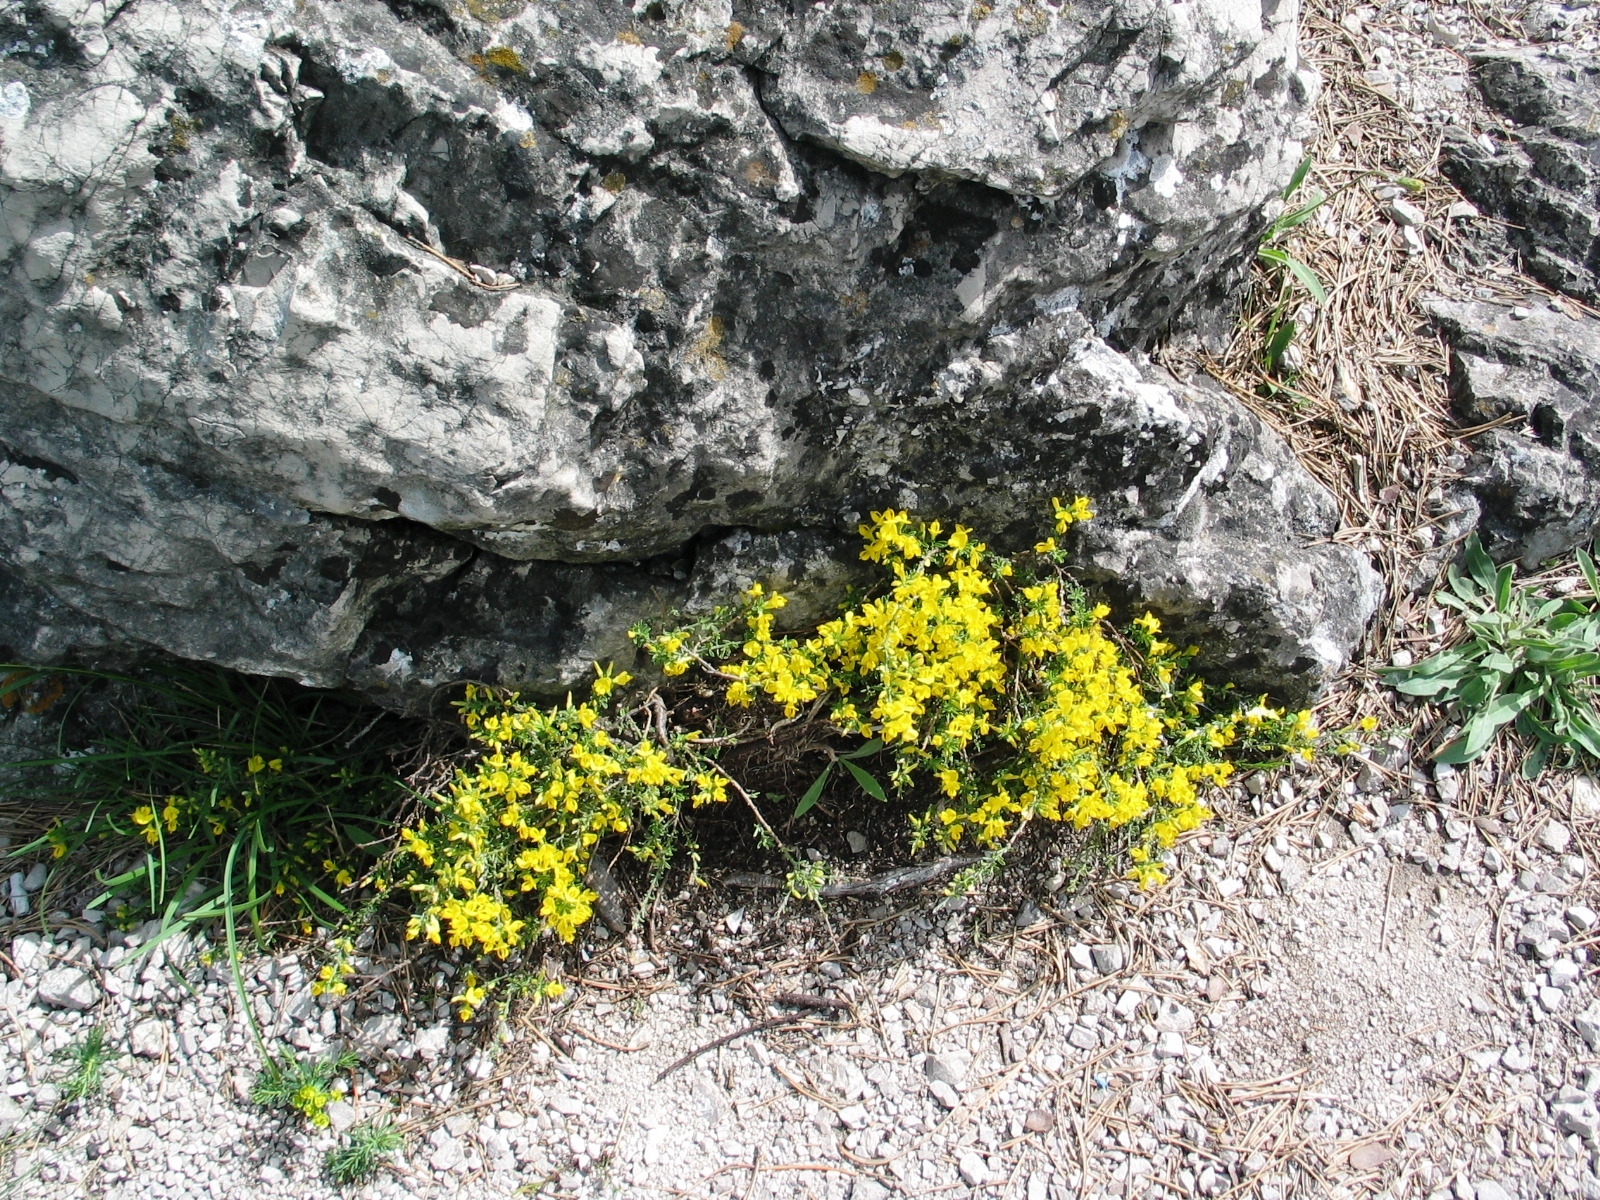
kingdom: Plantae
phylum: Tracheophyta
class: Magnoliopsida
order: Fabales
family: Fabaceae
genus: Genista
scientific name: Genista pilosa
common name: Hairy greenweed
